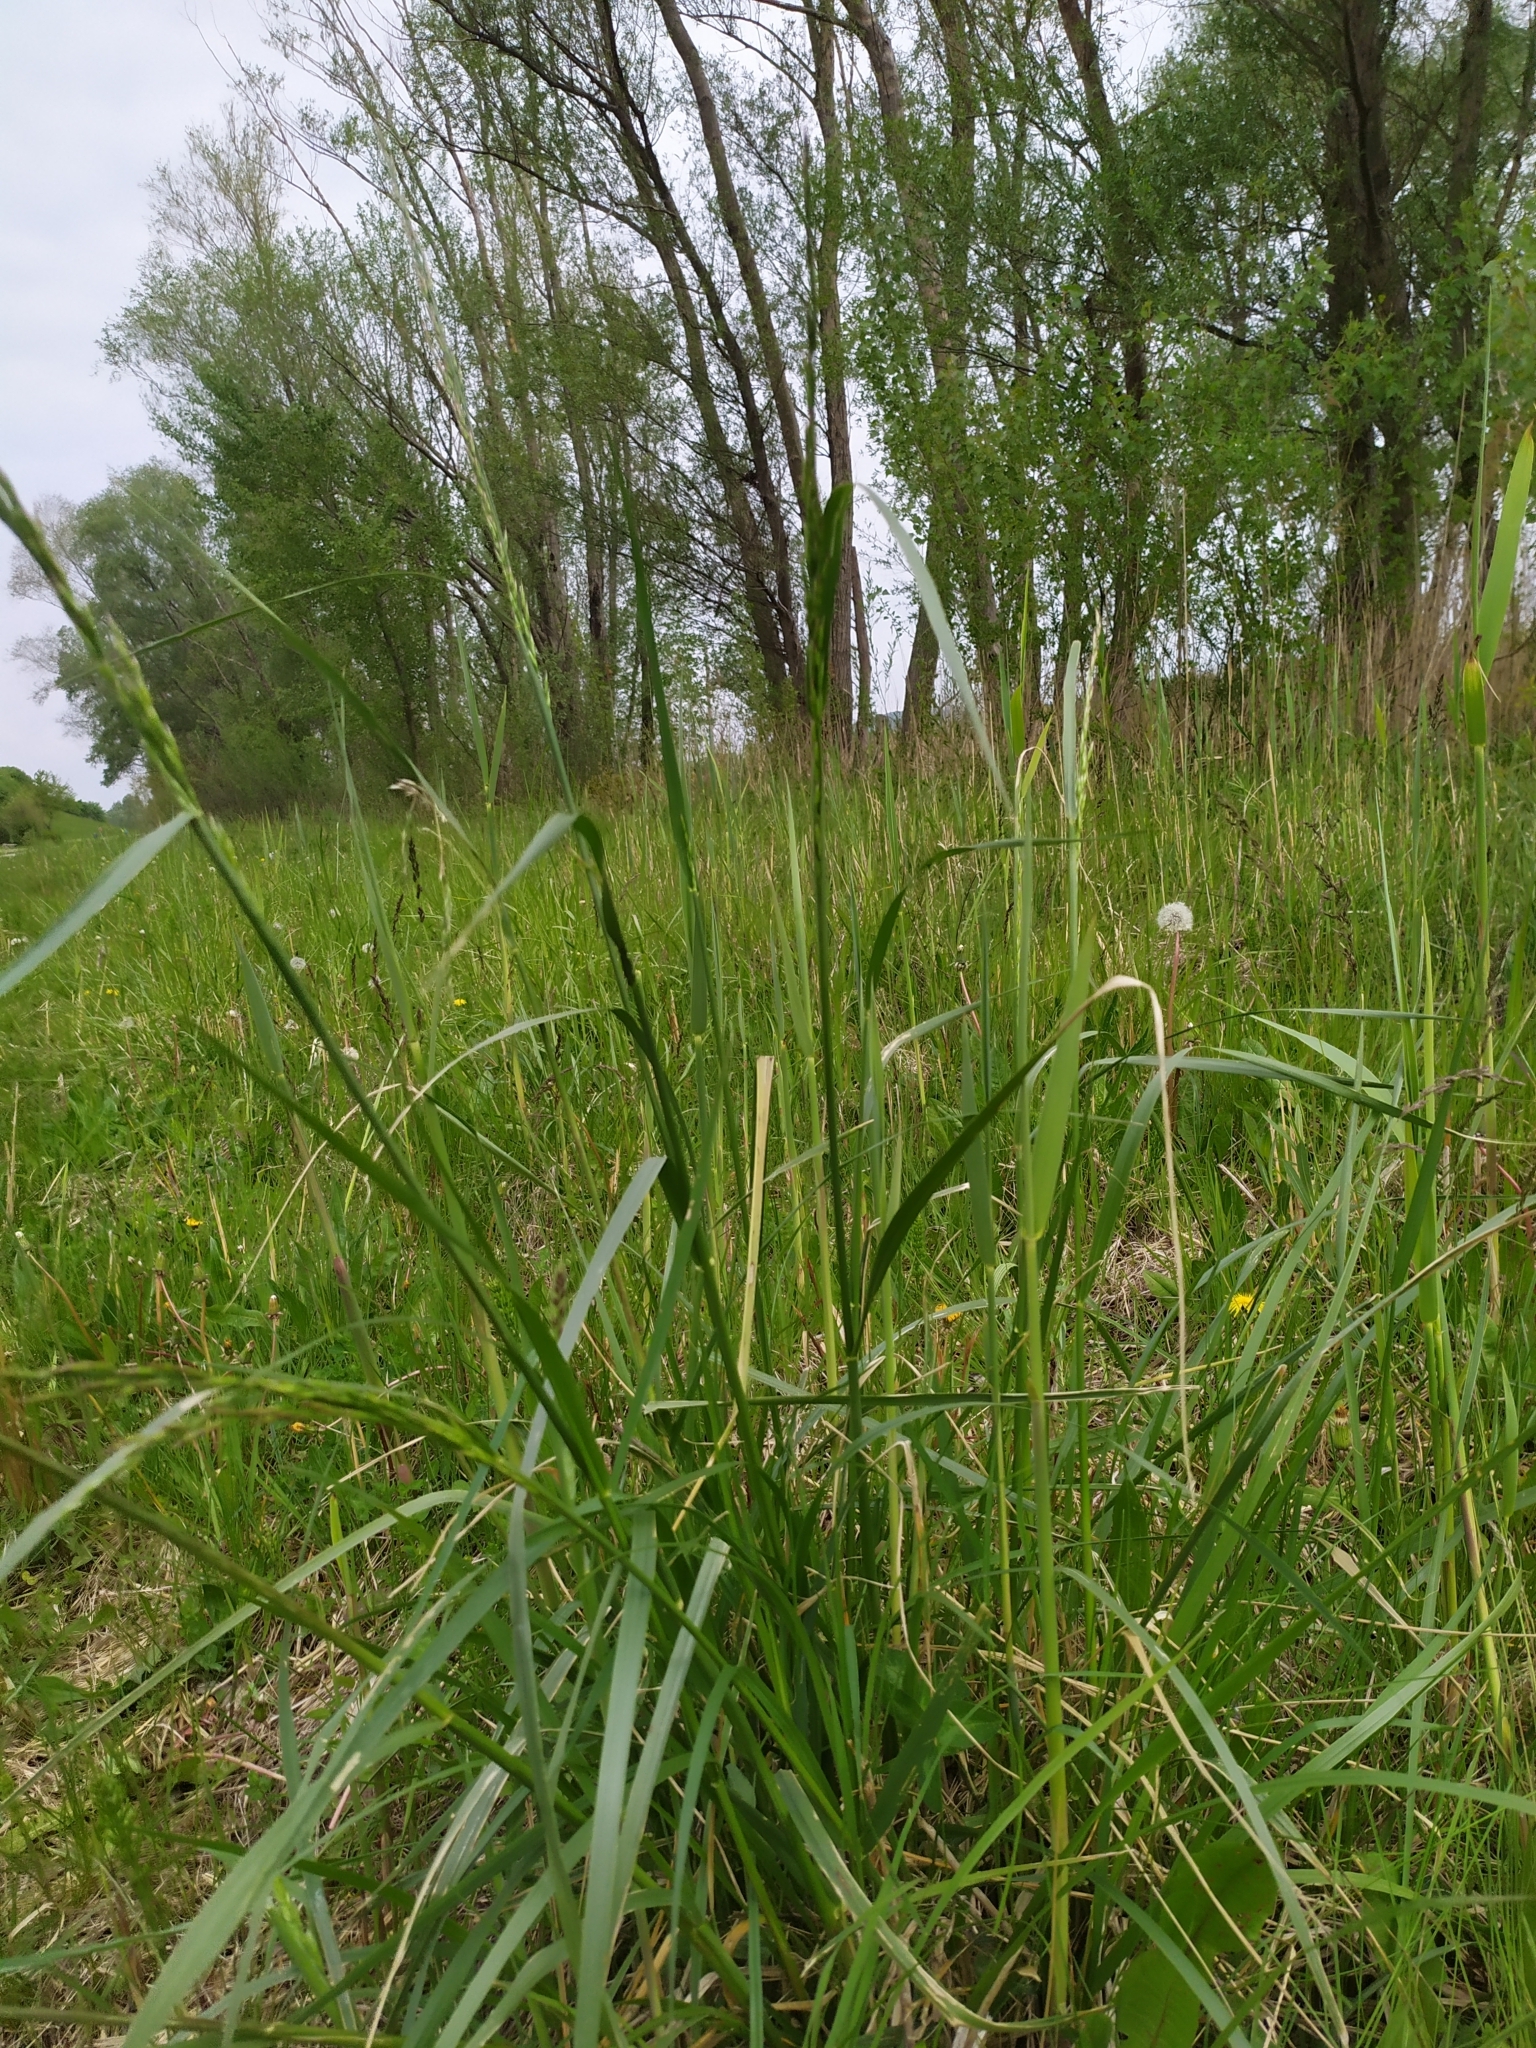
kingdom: Plantae
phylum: Tracheophyta
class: Liliopsida
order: Poales
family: Poaceae
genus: Lolium
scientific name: Lolium arundinaceum
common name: Reed fescue
